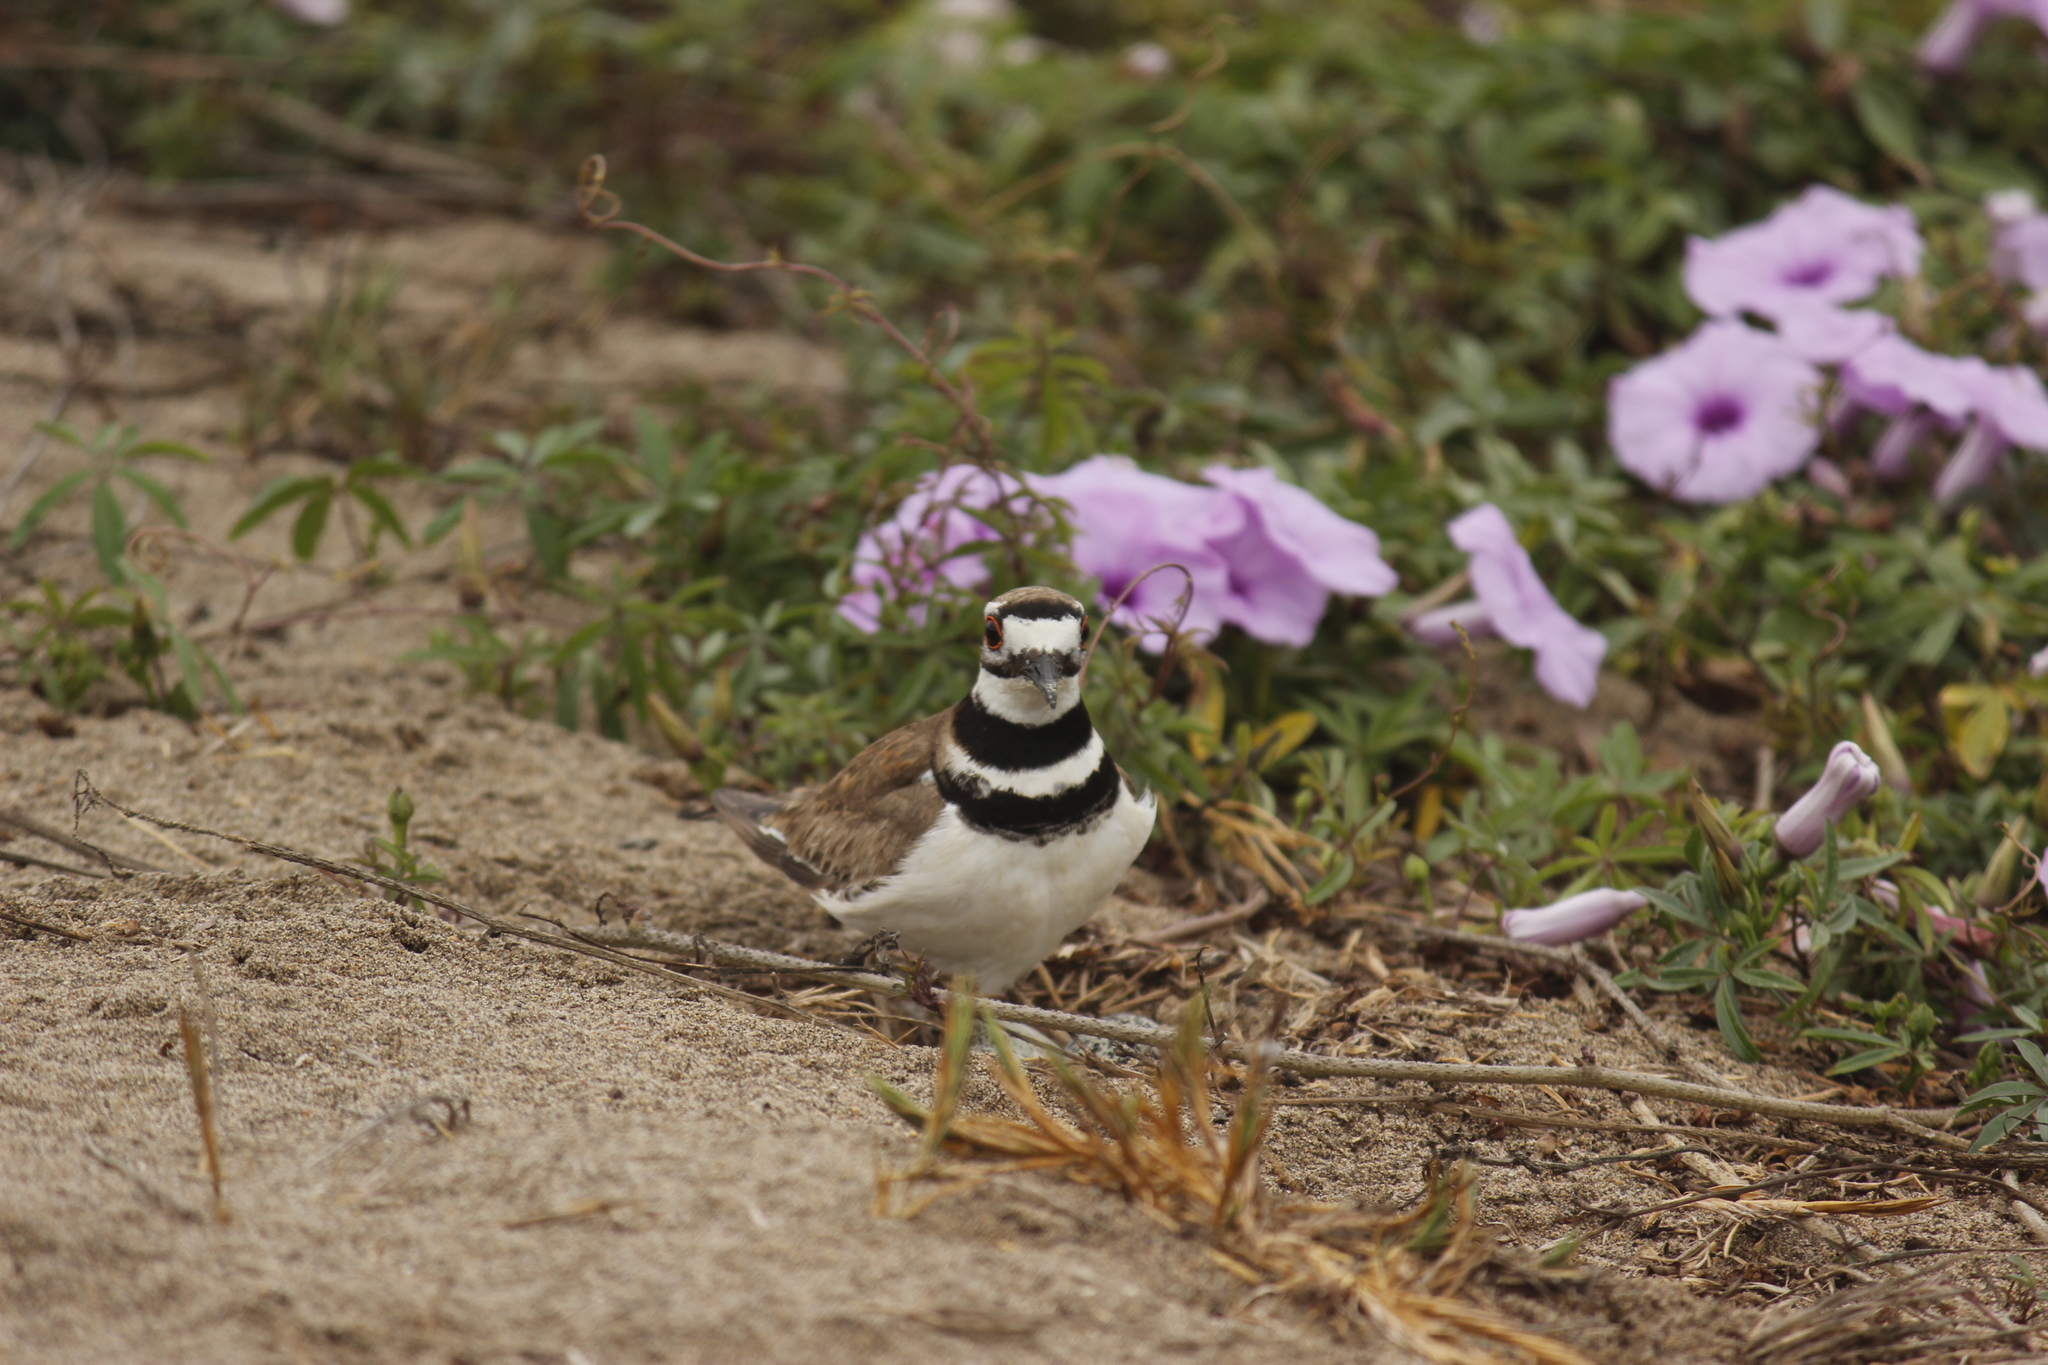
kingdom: Animalia
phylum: Chordata
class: Aves
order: Charadriiformes
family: Charadriidae
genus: Charadrius
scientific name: Charadrius vociferus
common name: Killdeer
